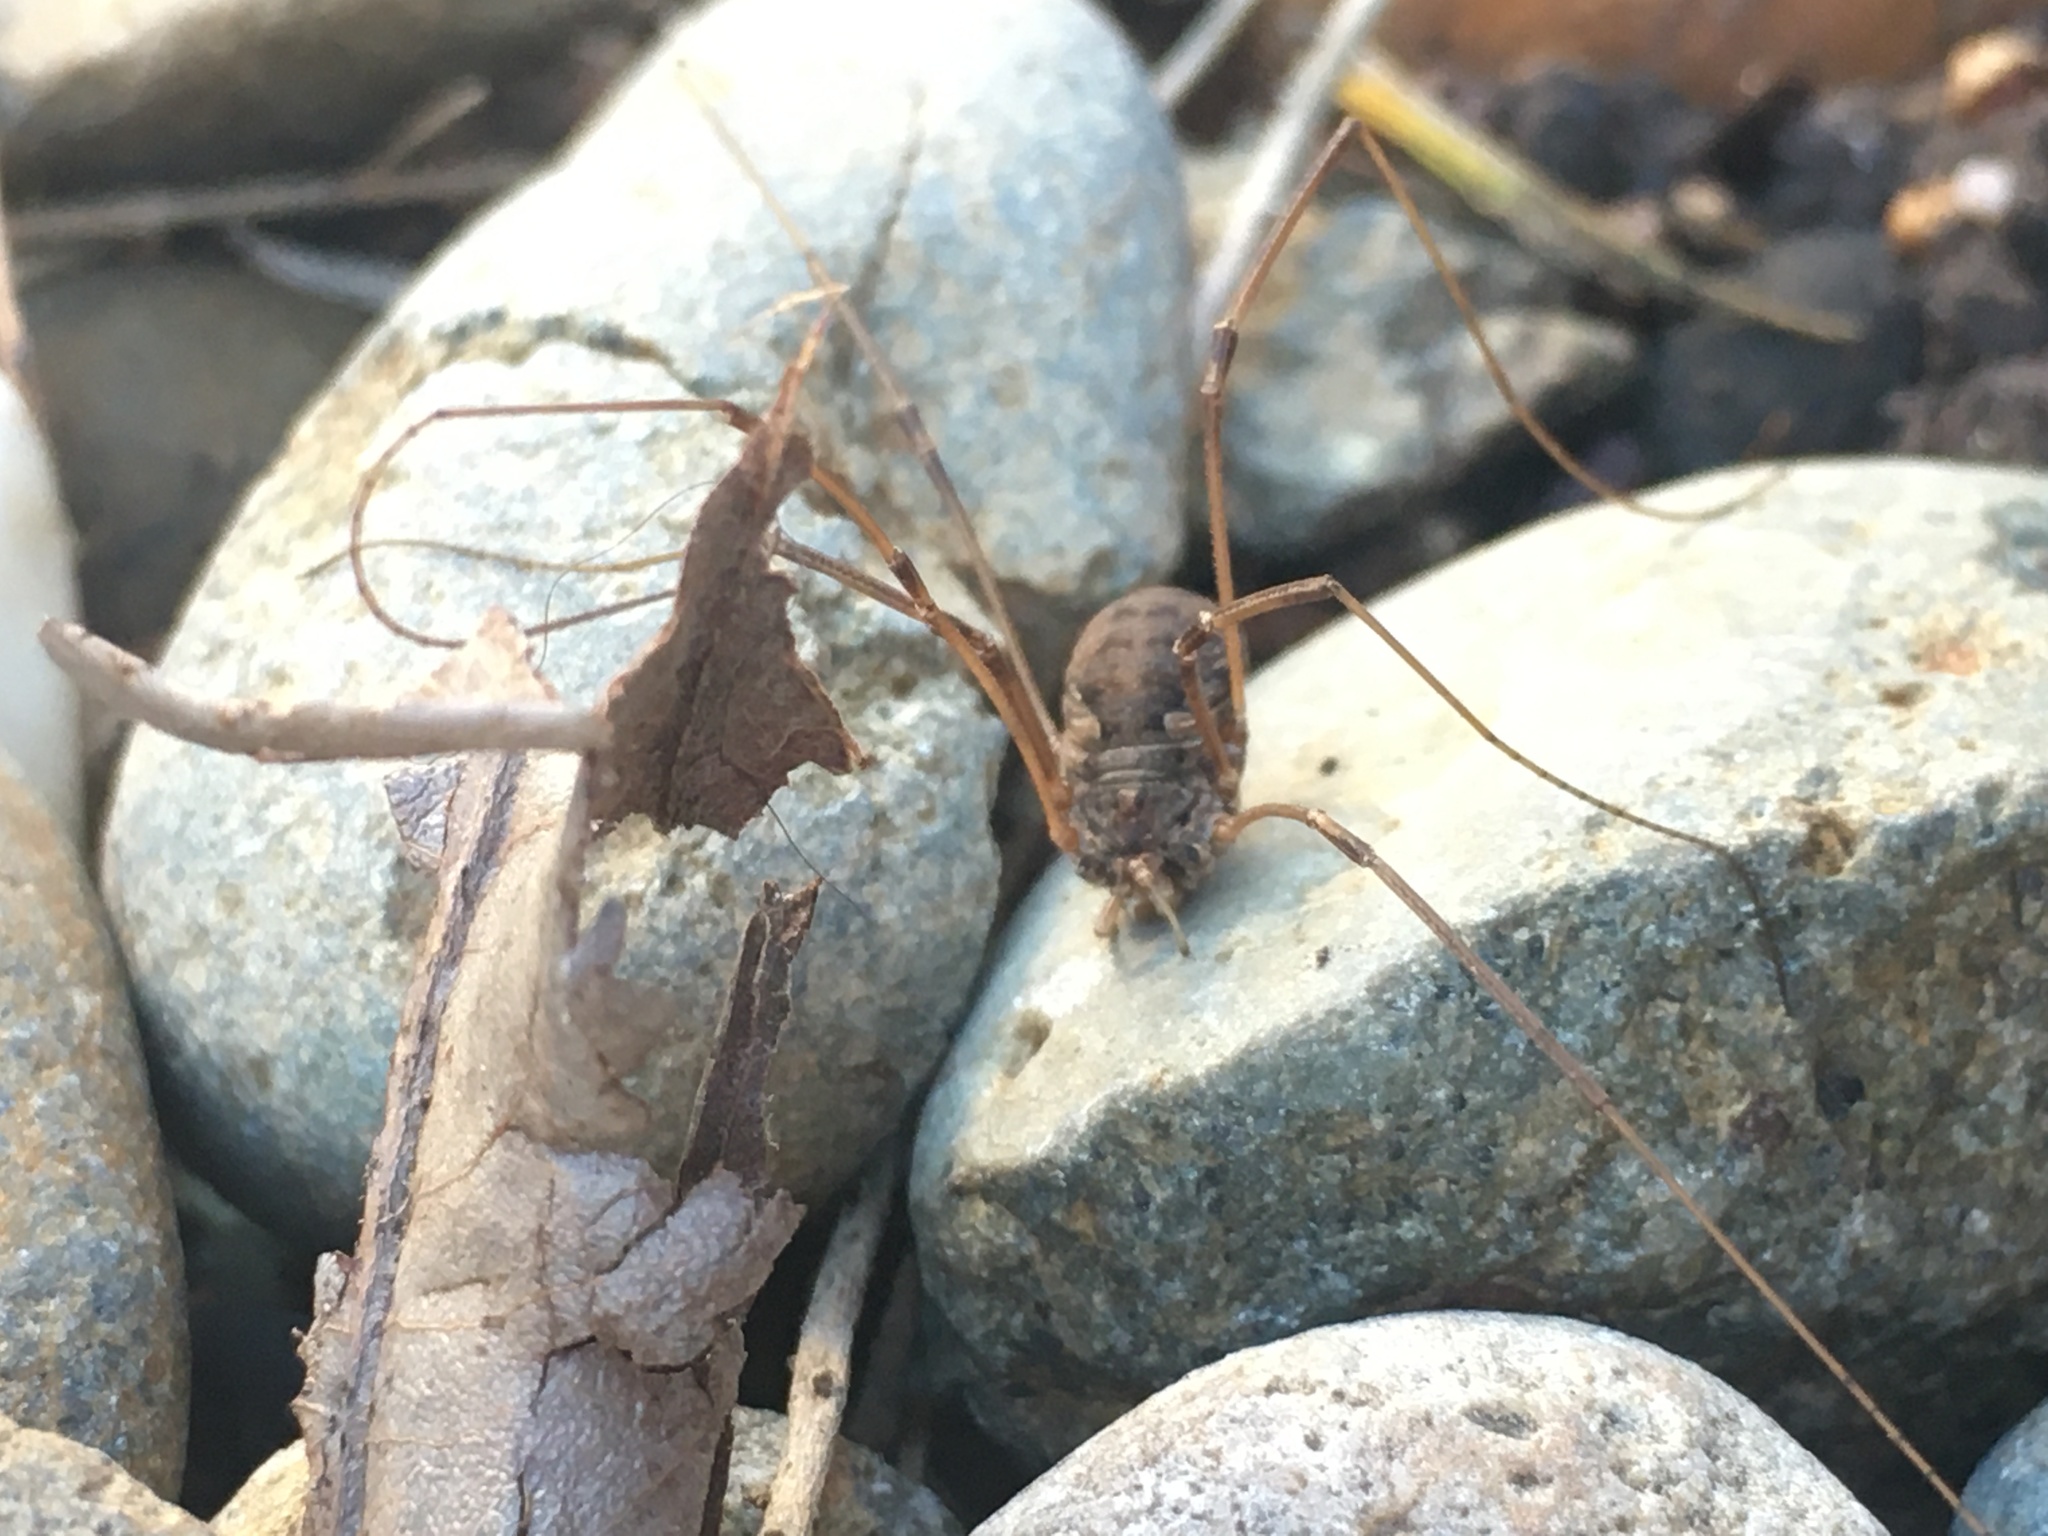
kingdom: Animalia
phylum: Arthropoda
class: Arachnida
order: Opiliones
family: Phalangiidae
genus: Phalangium
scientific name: Phalangium opilio
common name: Daddy longleg
